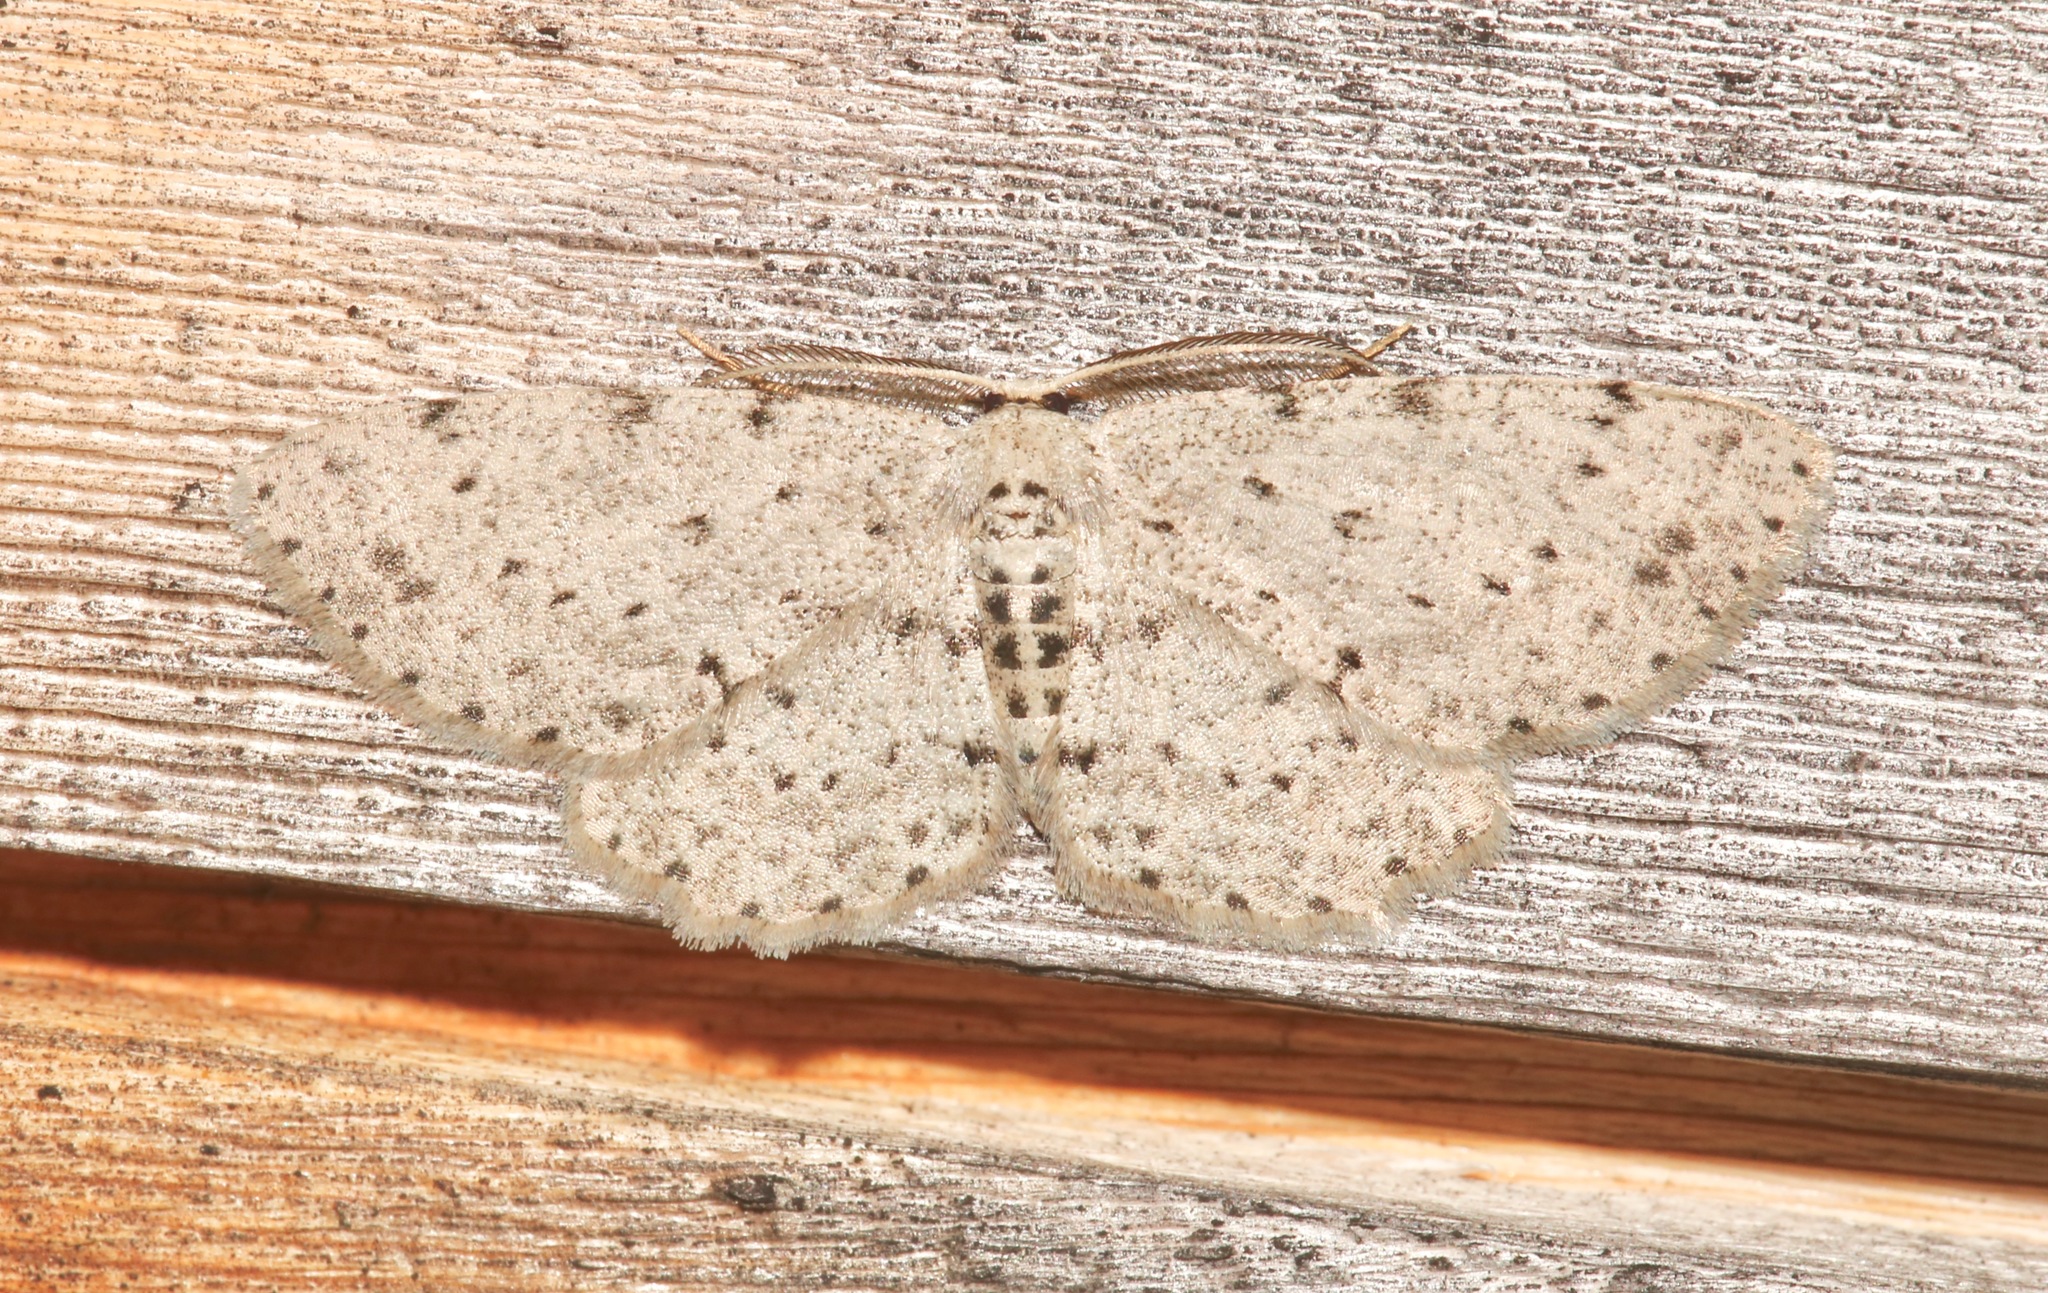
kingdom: Animalia
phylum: Arthropoda
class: Insecta
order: Lepidoptera
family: Geometridae
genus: Glena
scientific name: Glena cribrataria
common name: Dotted gray
